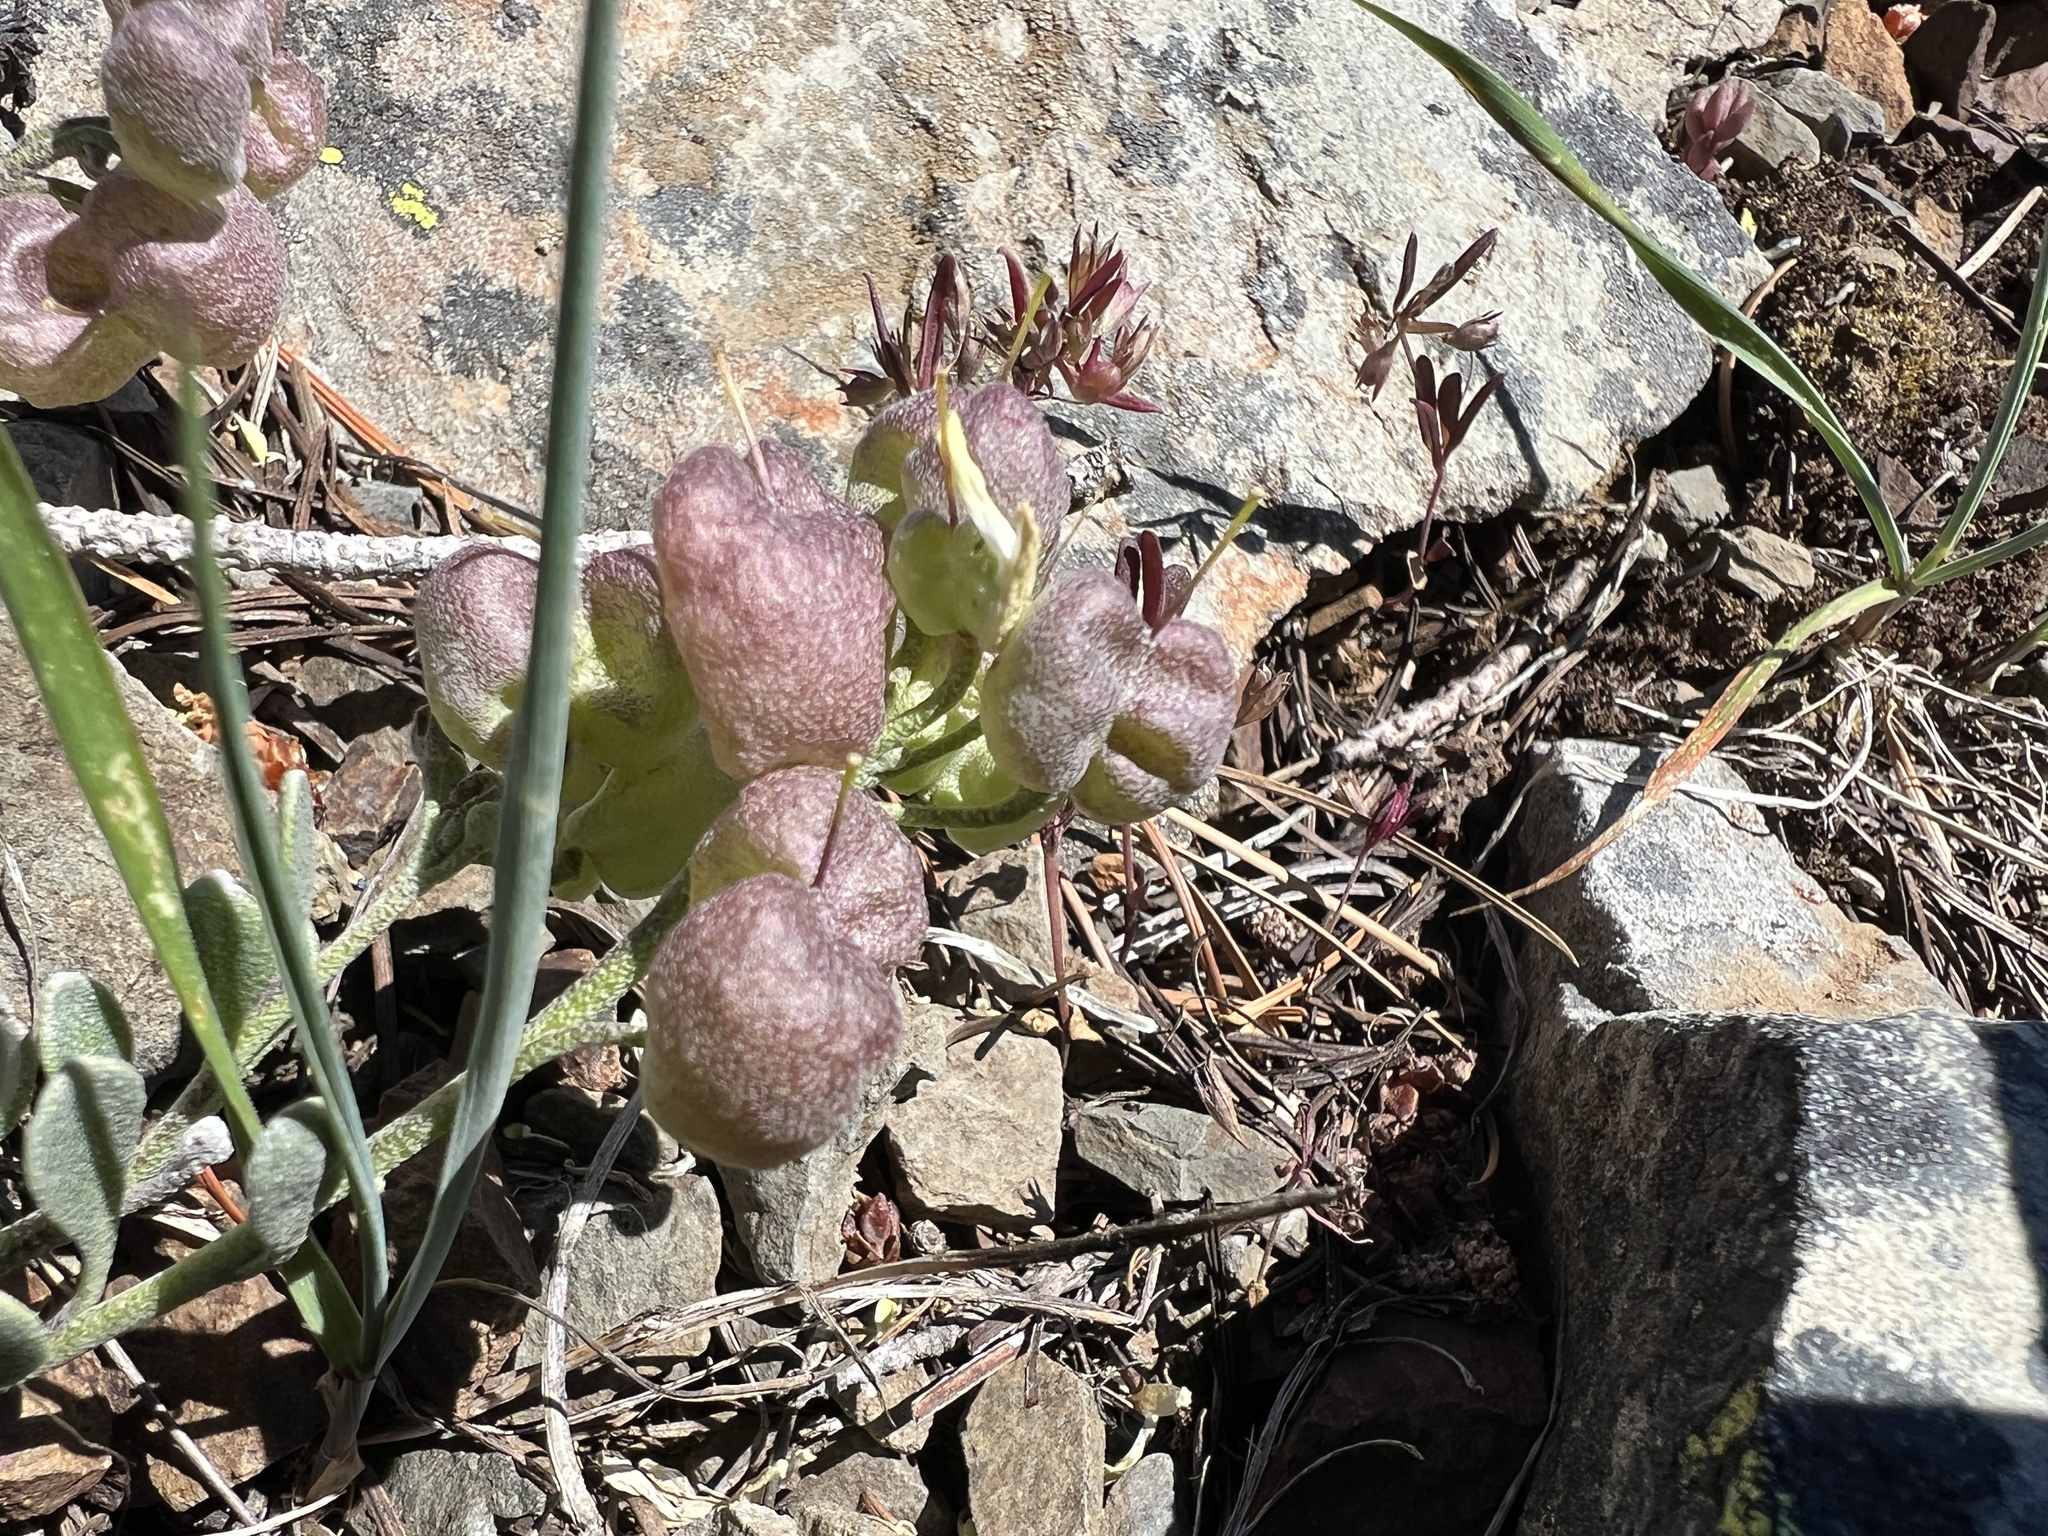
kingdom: Plantae
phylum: Tracheophyta
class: Magnoliopsida
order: Brassicales
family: Brassicaceae
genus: Physaria
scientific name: Physaria alpestris
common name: Washington twinpod
